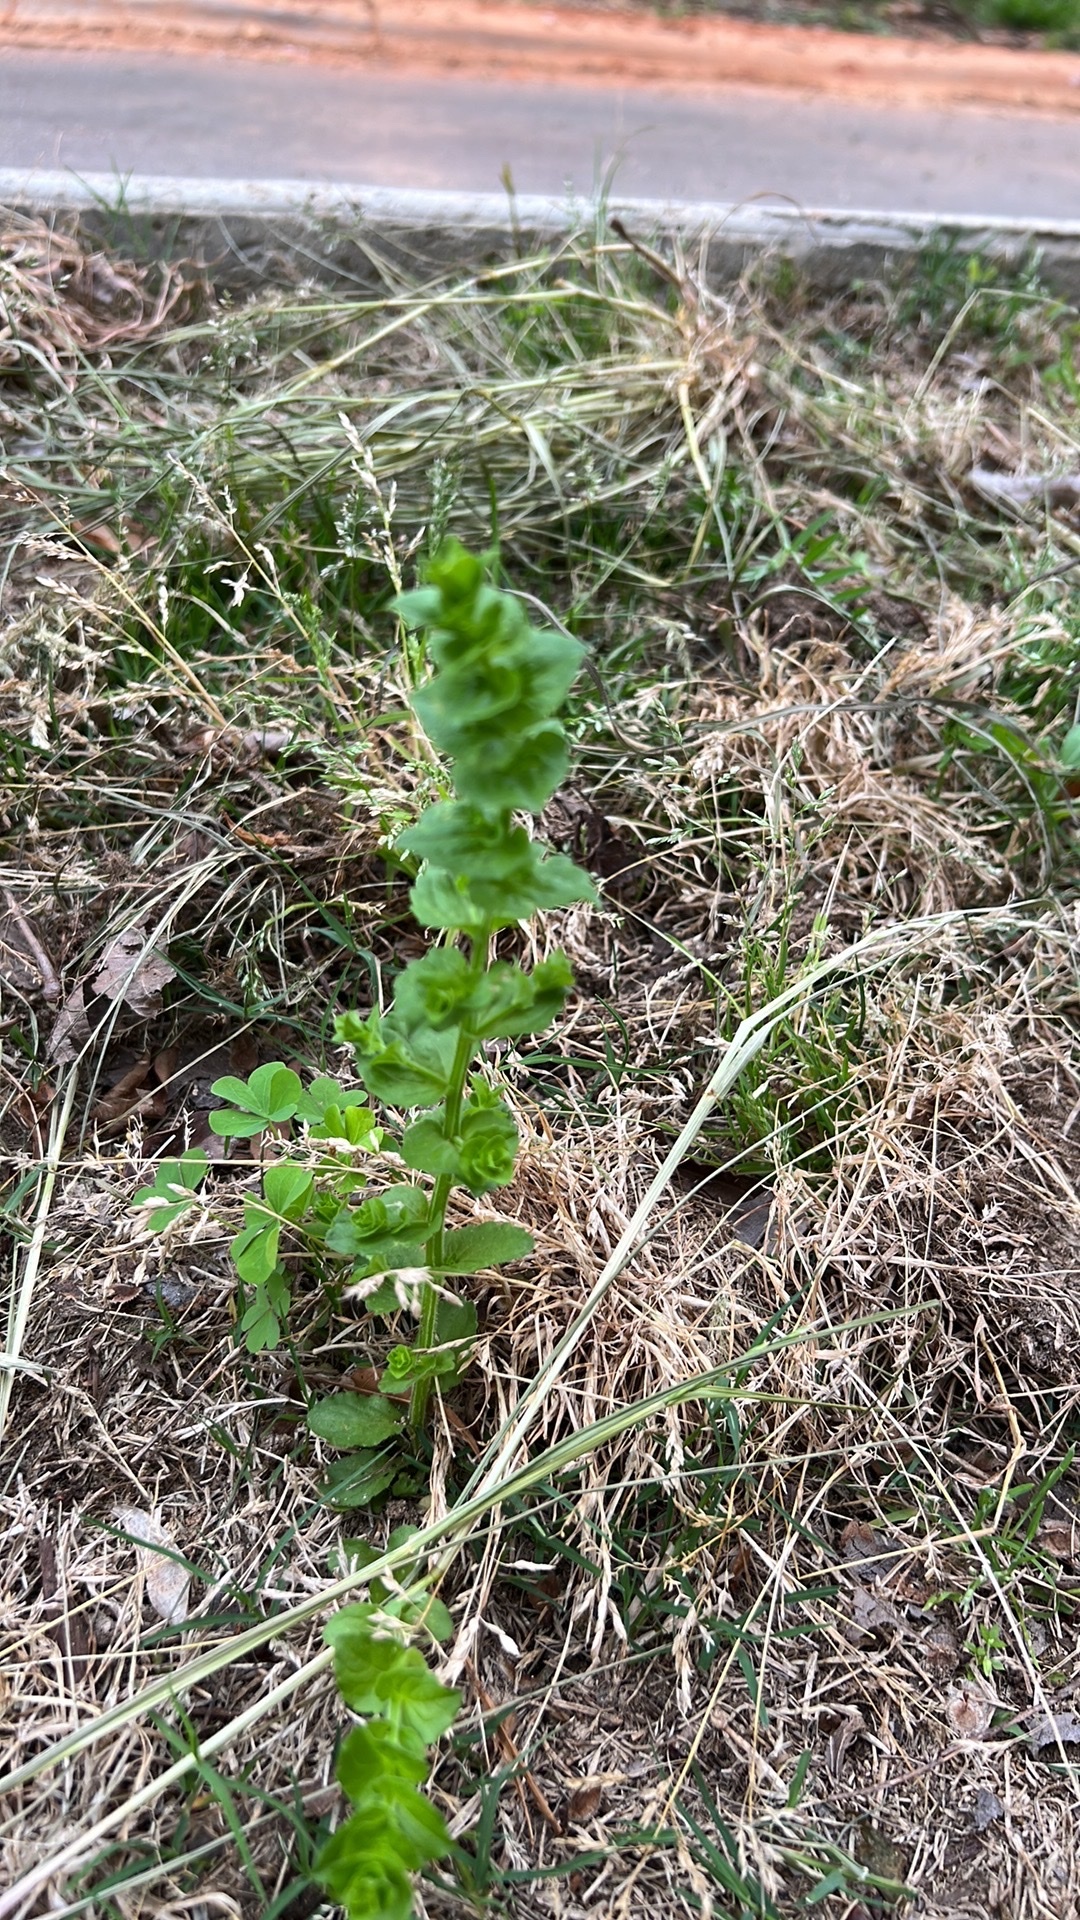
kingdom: Plantae
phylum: Tracheophyta
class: Magnoliopsida
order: Asterales
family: Campanulaceae
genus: Triodanis
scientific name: Triodanis perfoliata
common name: Clasping venus' looking-glass
